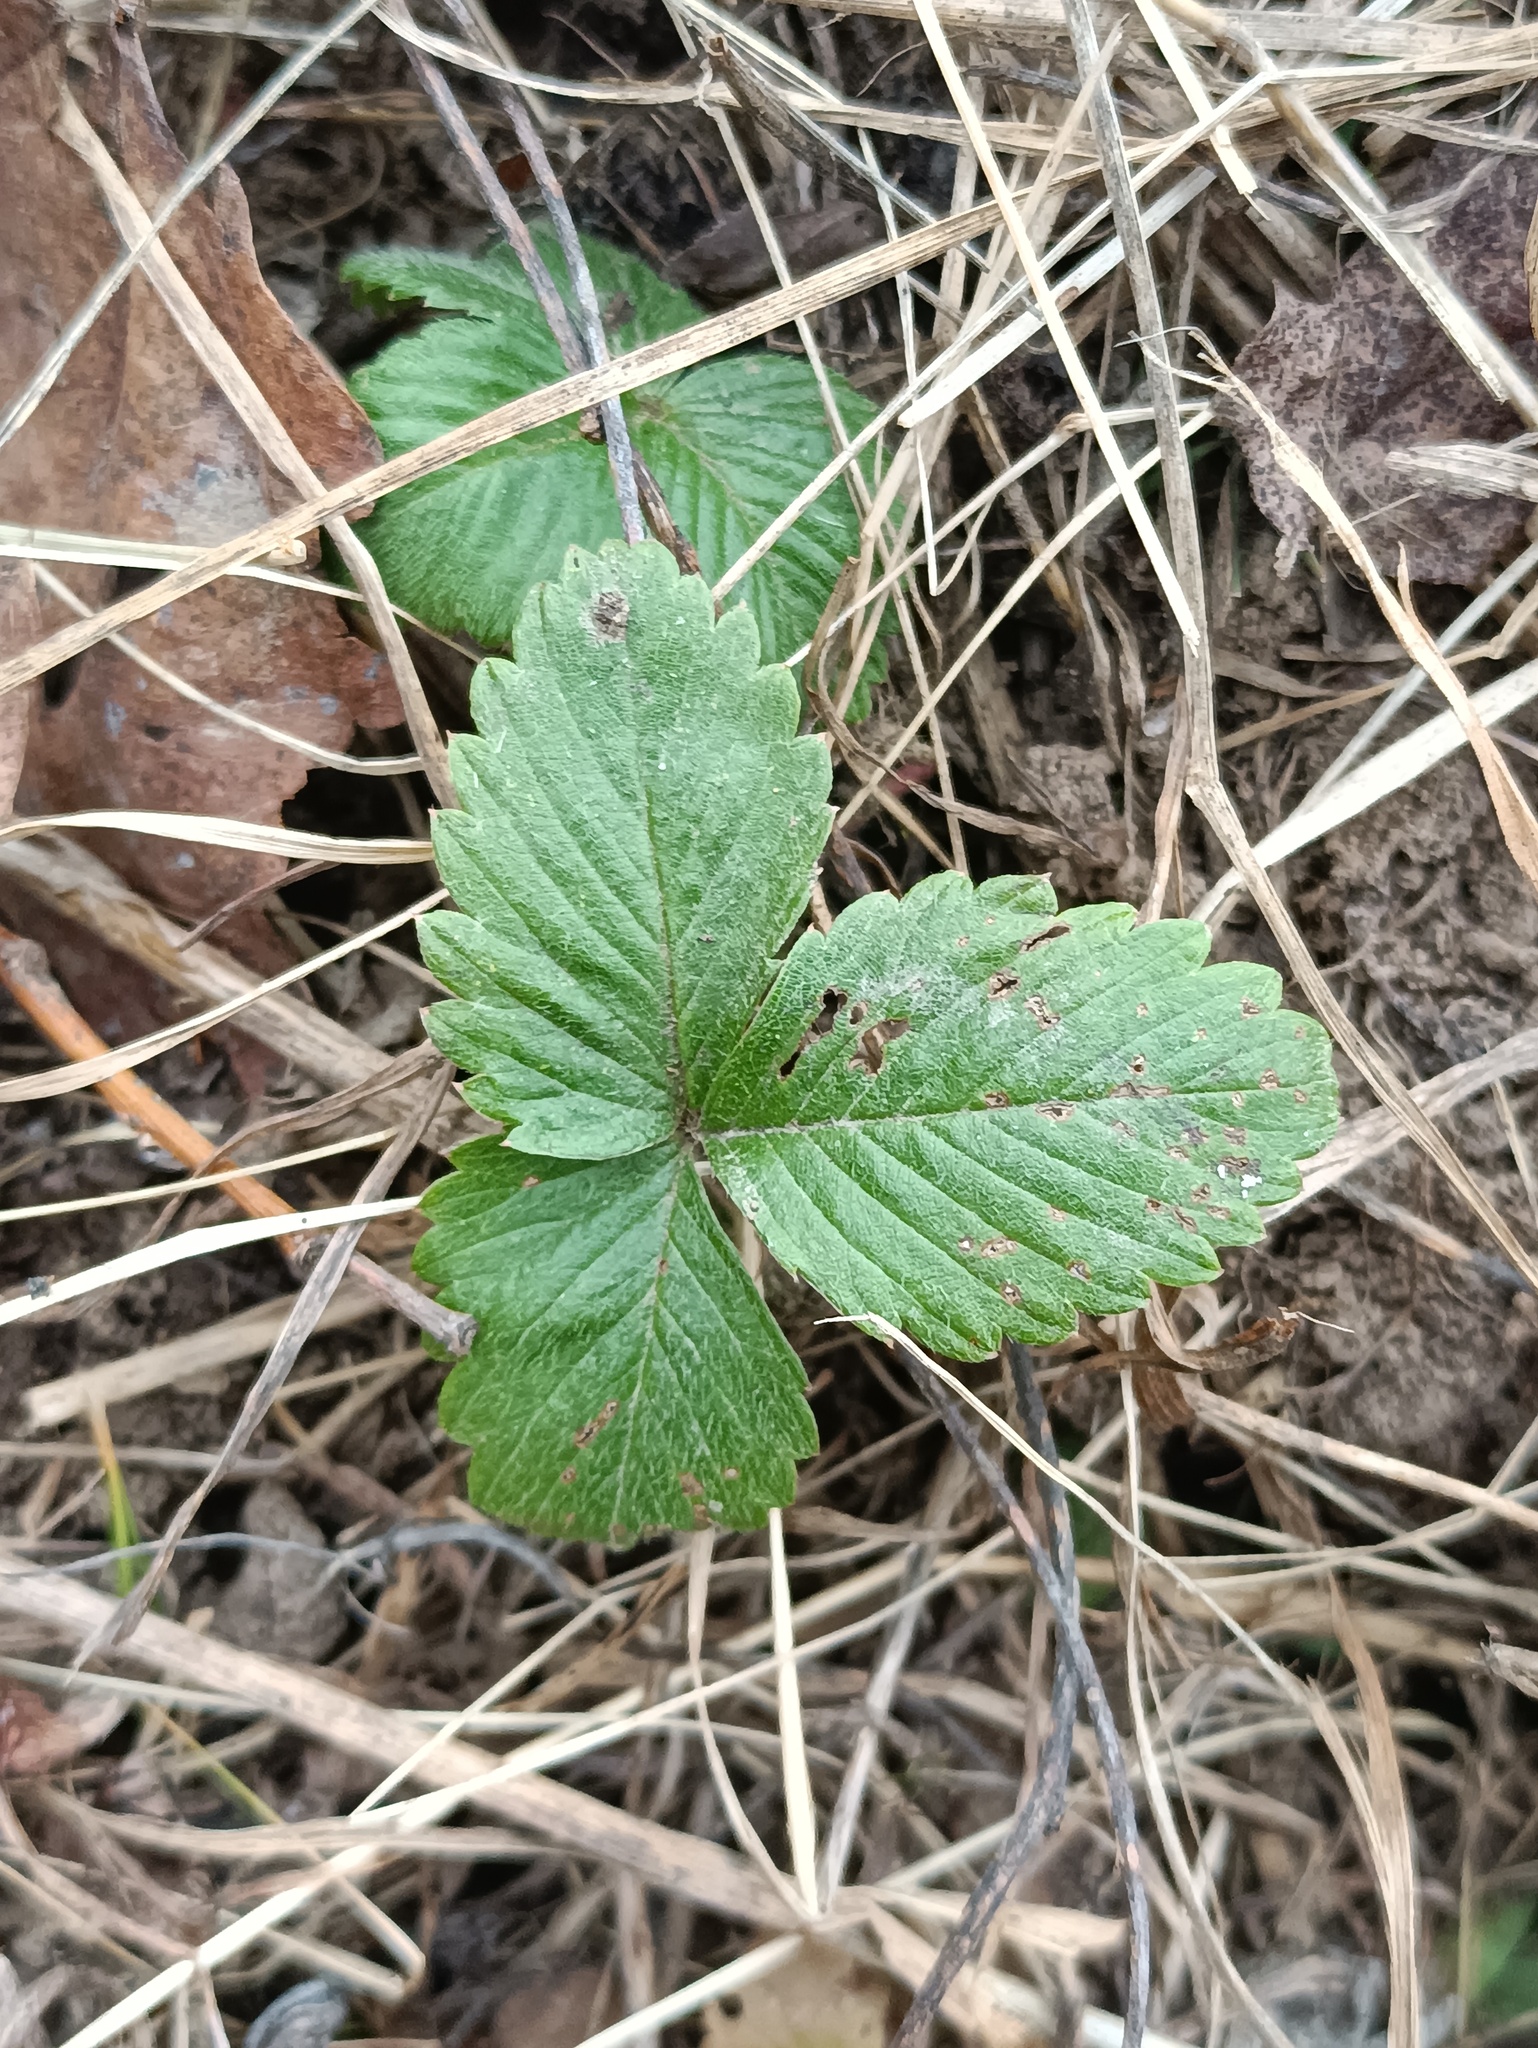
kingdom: Plantae
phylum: Tracheophyta
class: Magnoliopsida
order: Rosales
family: Rosaceae
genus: Fragaria
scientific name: Fragaria vesca
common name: Wild strawberry
